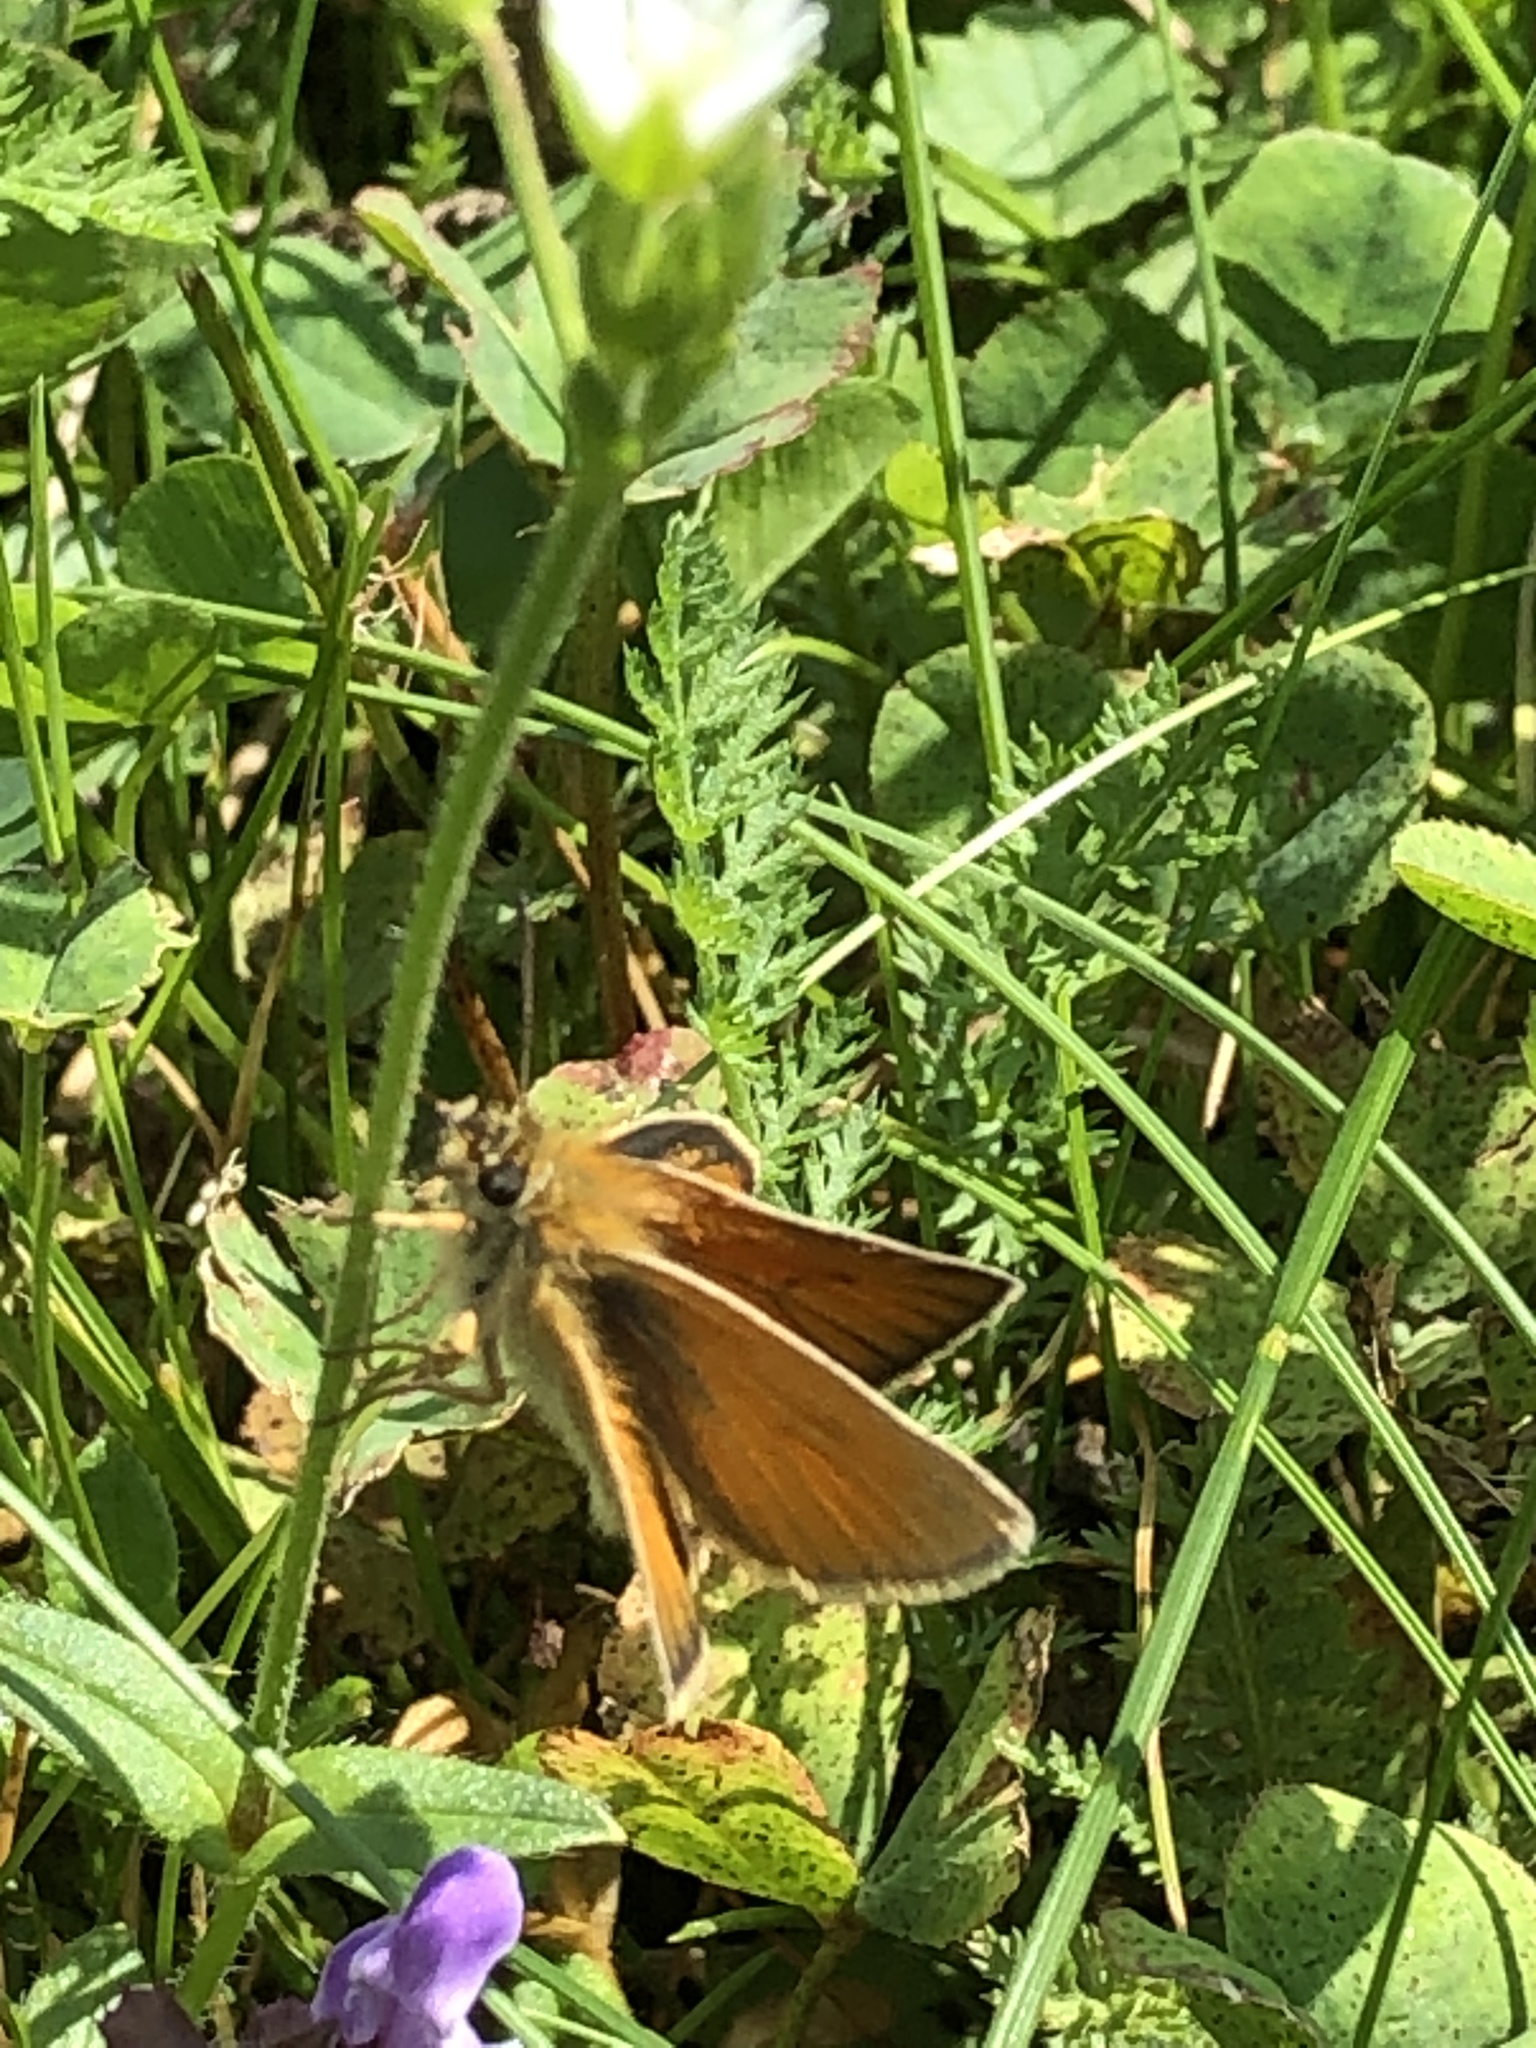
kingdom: Animalia
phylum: Arthropoda
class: Insecta
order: Lepidoptera
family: Hesperiidae
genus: Thymelicus
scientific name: Thymelicus lineola
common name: Essex skipper
